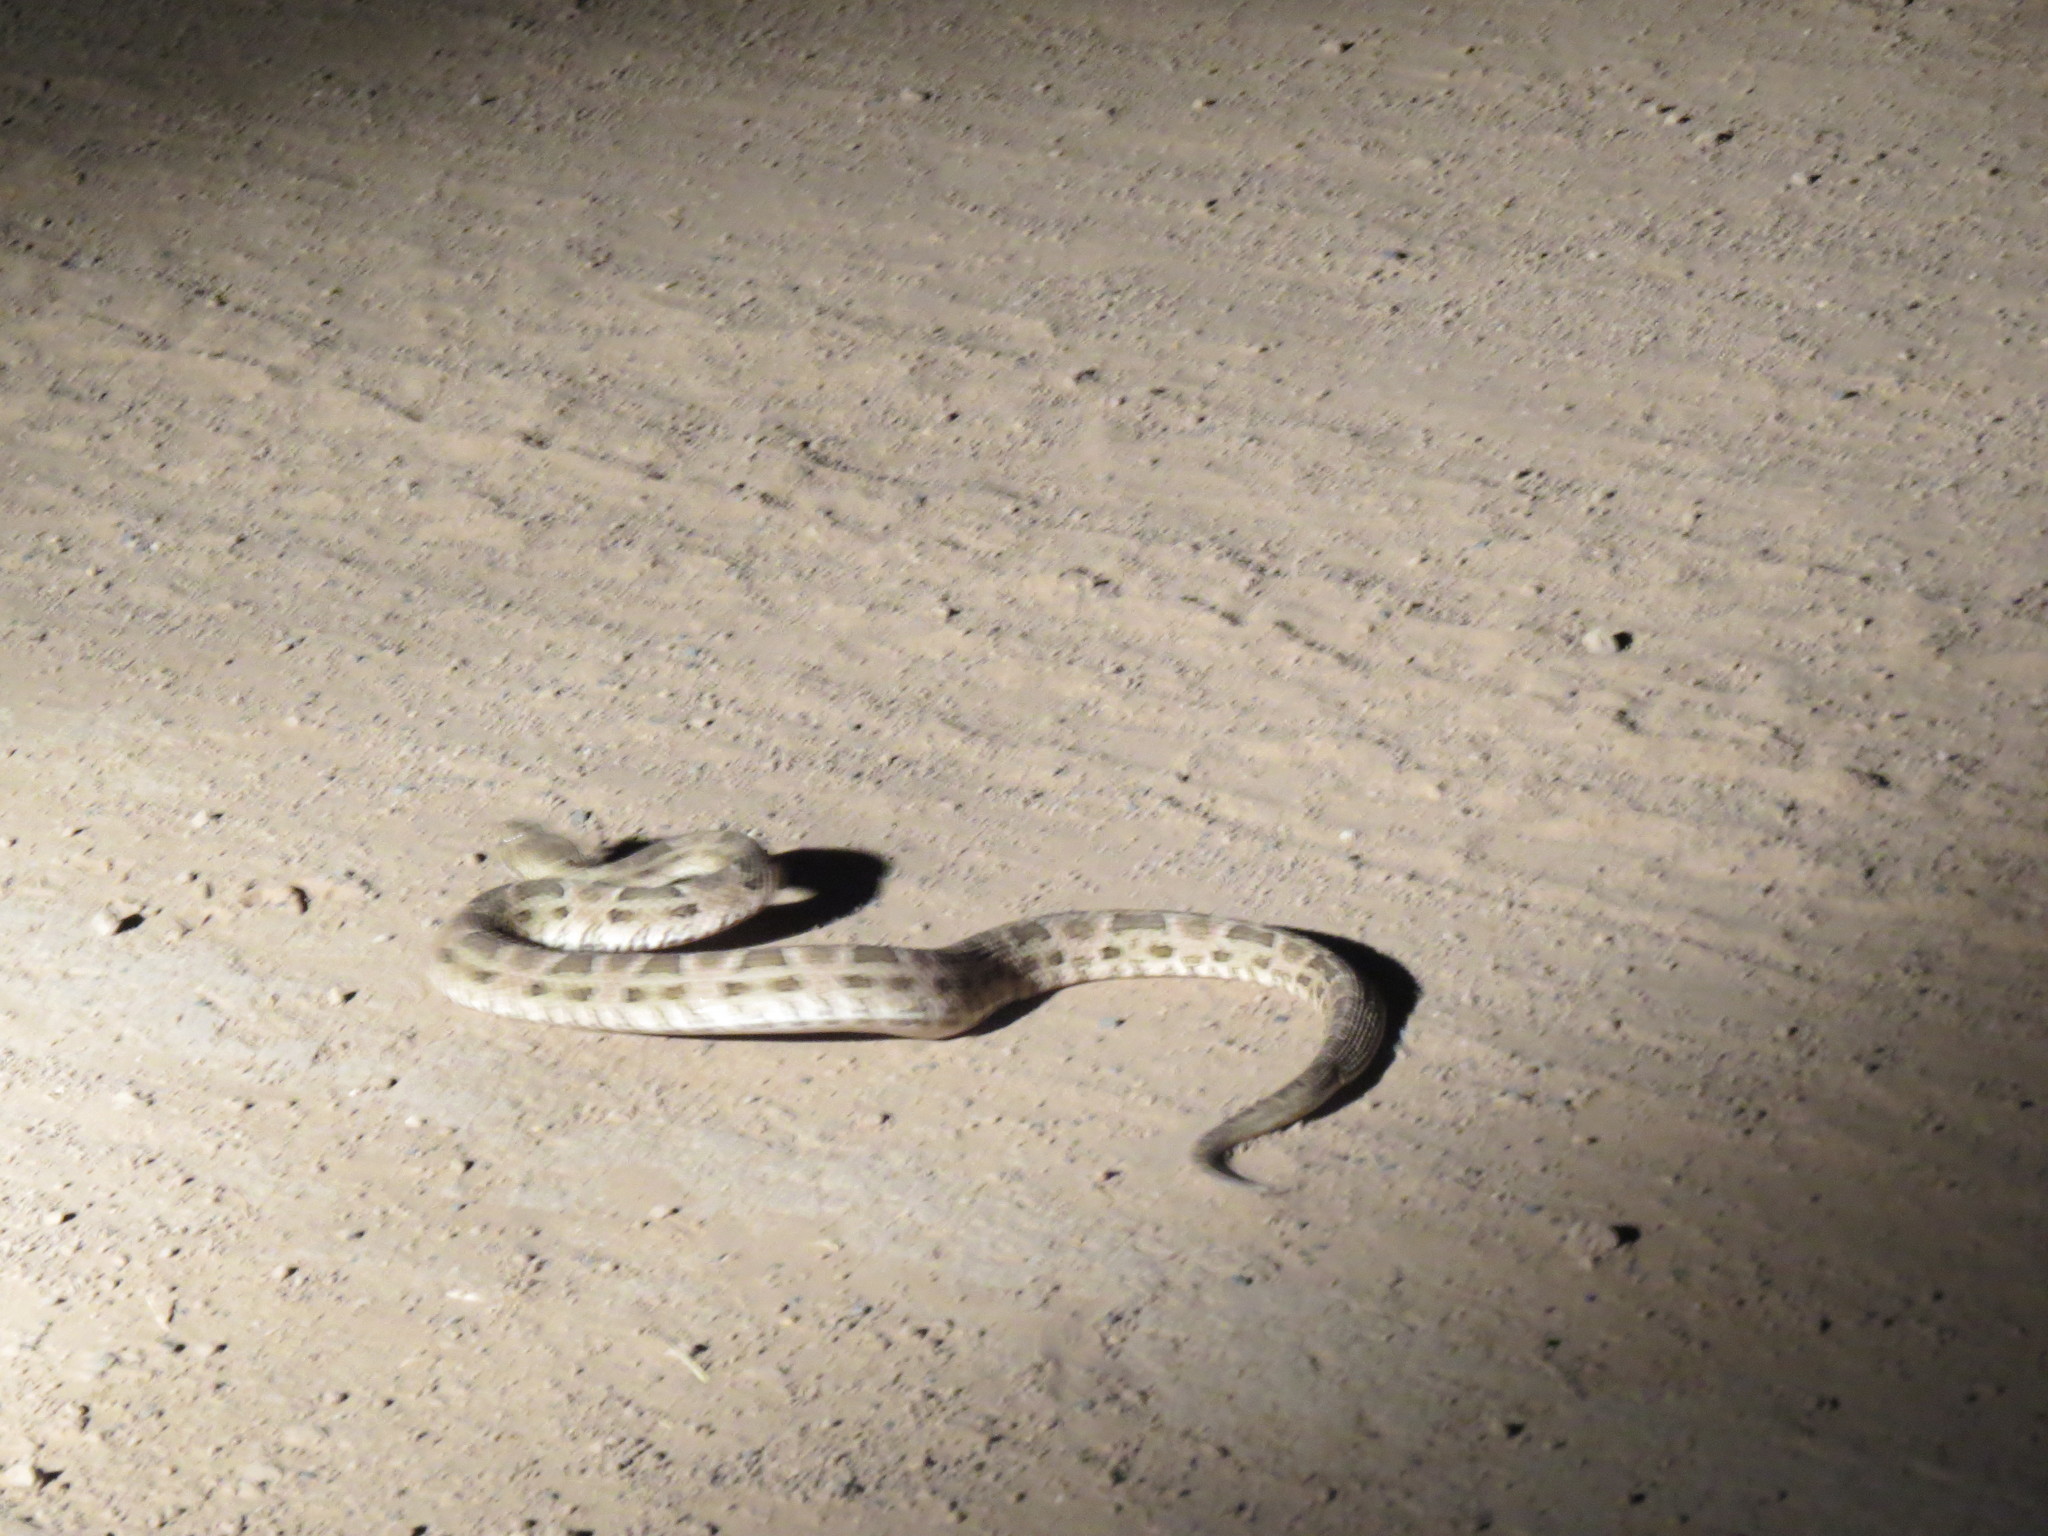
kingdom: Animalia
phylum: Chordata
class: Squamata
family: Viperidae
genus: Bothrops
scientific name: Bothrops diporus
